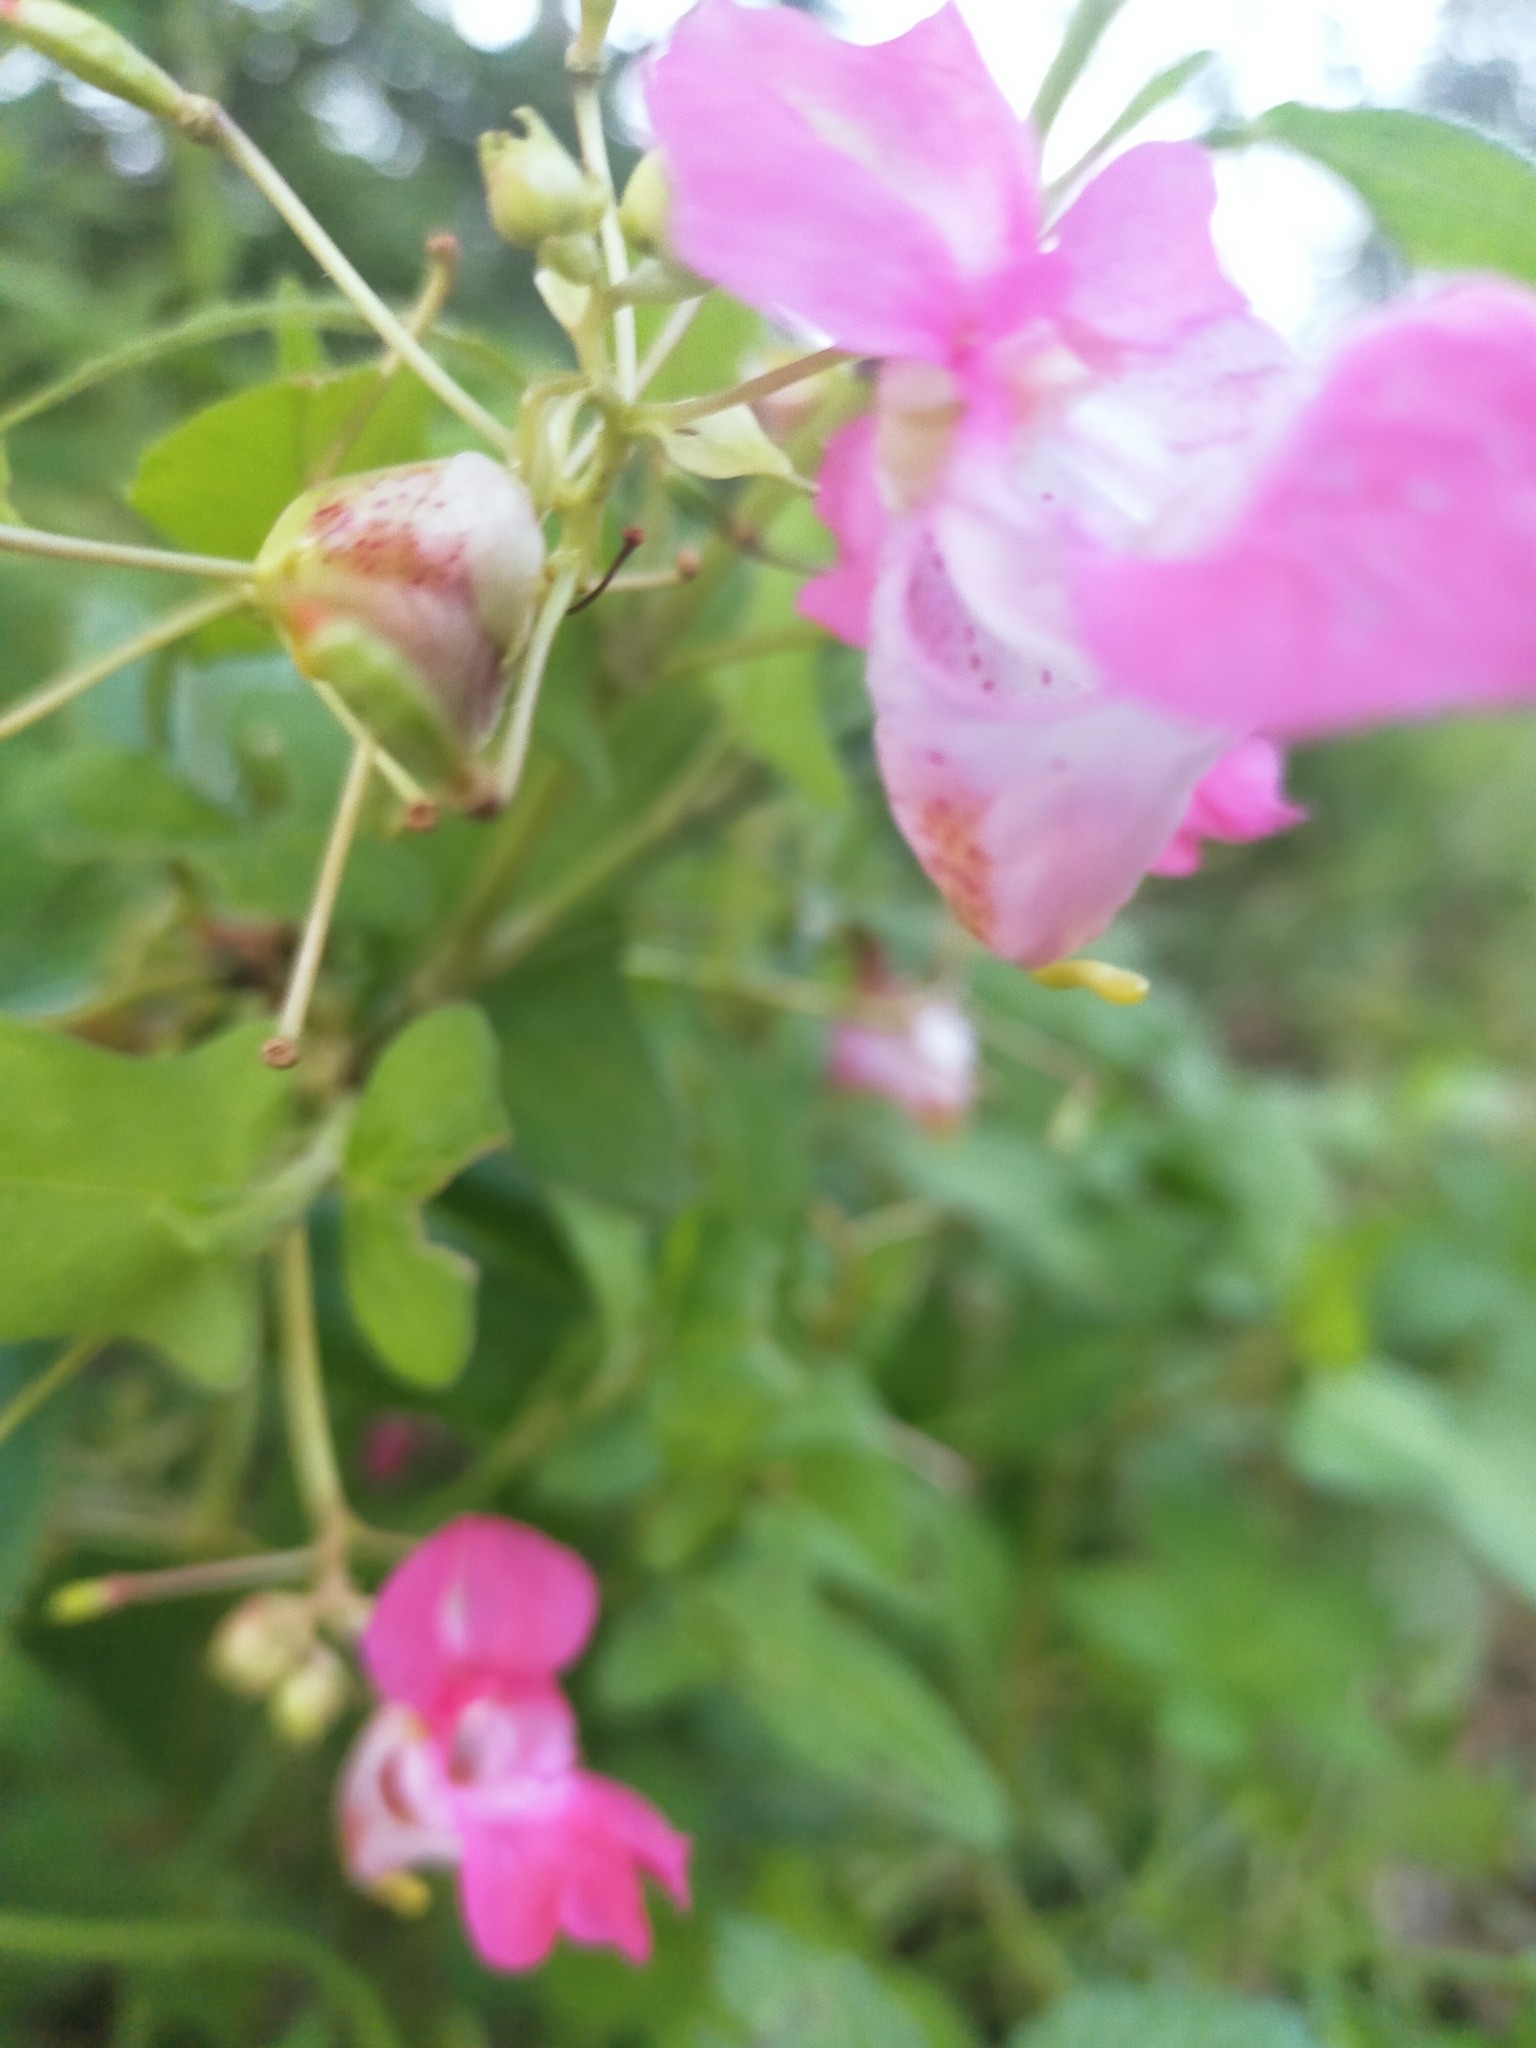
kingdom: Plantae
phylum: Tracheophyta
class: Magnoliopsida
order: Ericales
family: Balsaminaceae
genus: Impatiens
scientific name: Impatiens glandulifera
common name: Himalayan balsam
